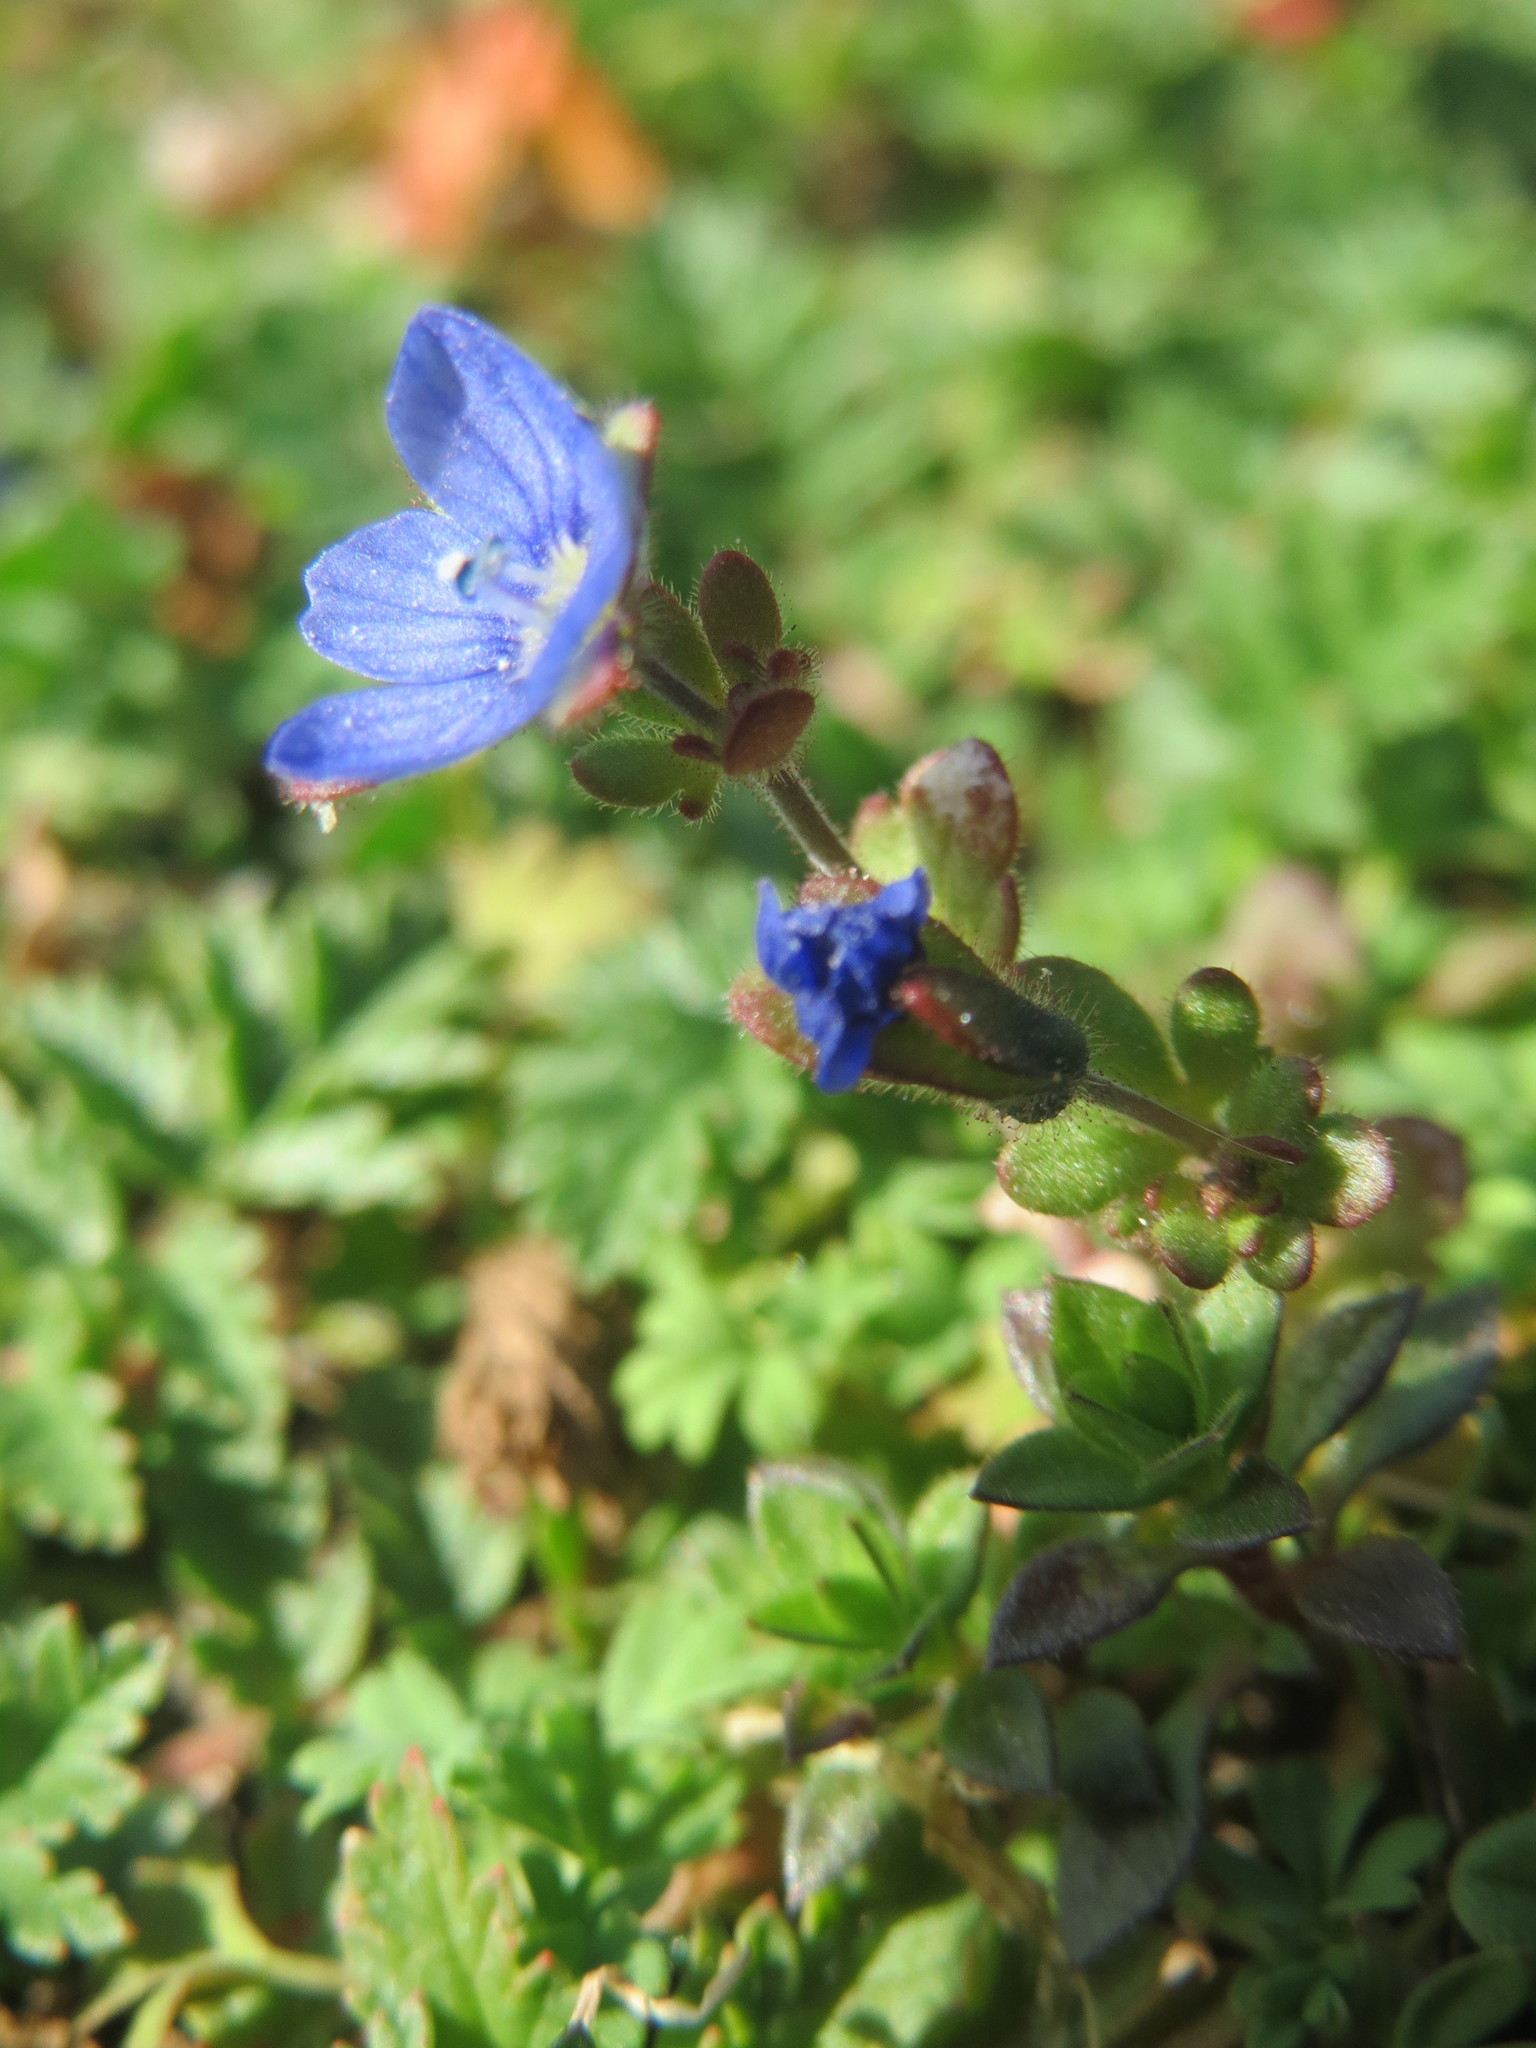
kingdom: Plantae
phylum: Tracheophyta
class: Magnoliopsida
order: Lamiales
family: Plantaginaceae
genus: Veronica
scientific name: Veronica triphyllos
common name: Fingered speedwell
